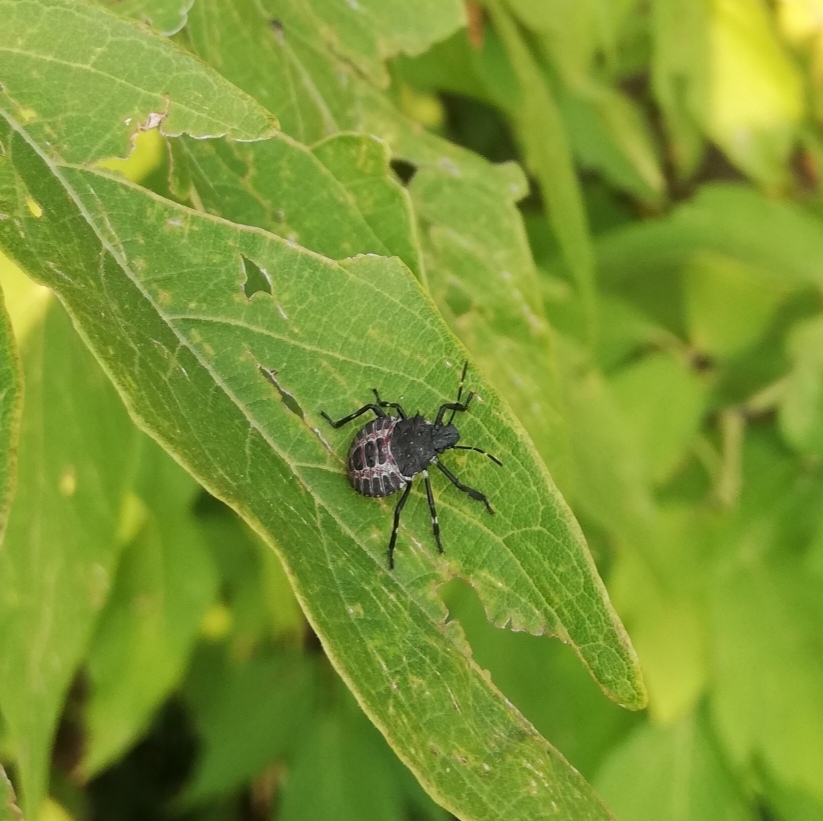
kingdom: Animalia
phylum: Arthropoda
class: Insecta
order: Hemiptera
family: Pentatomidae
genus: Halyomorpha
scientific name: Halyomorpha halys
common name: Brown marmorated stink bug
